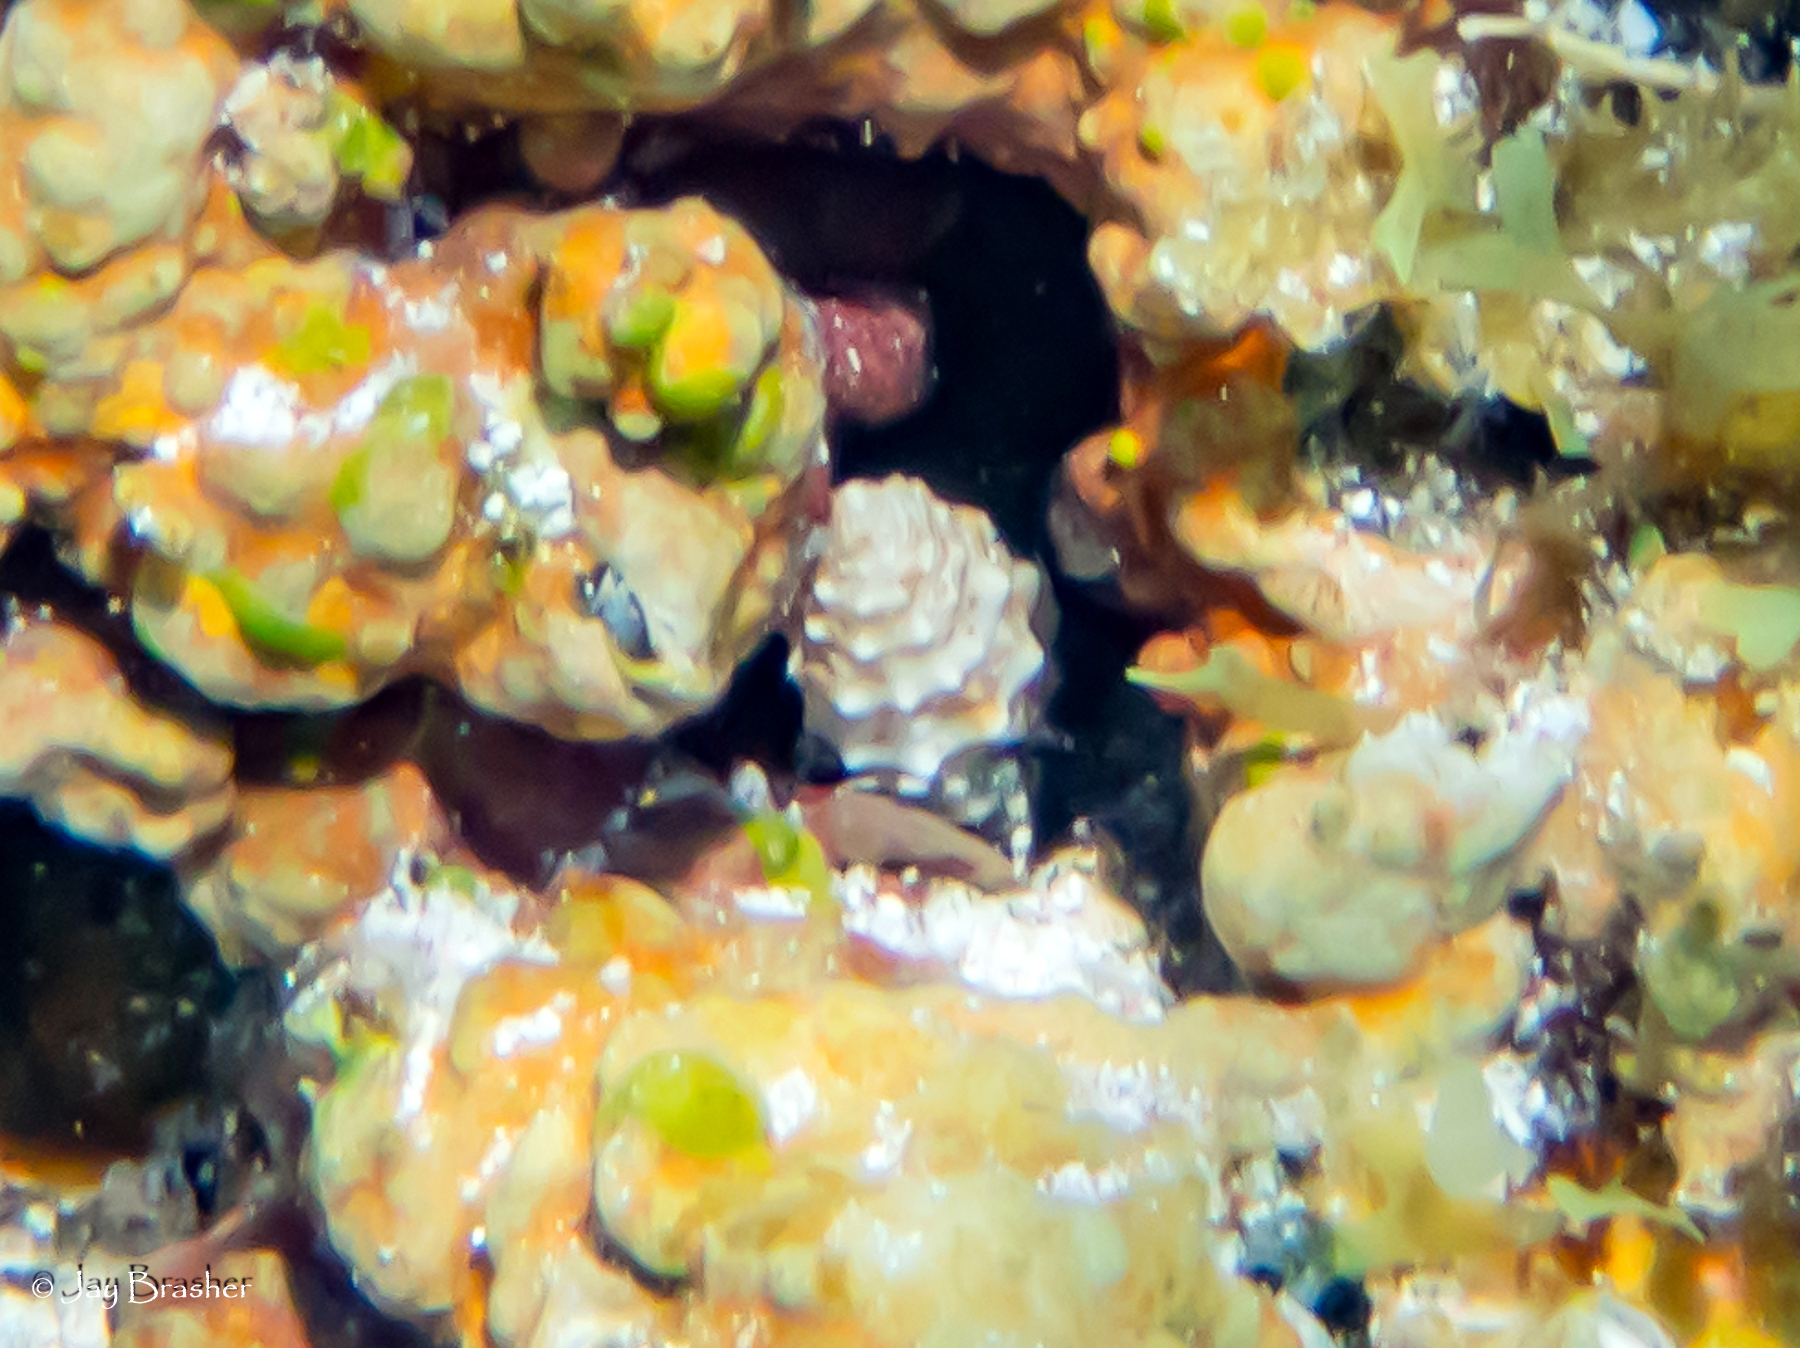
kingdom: Animalia
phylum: Mollusca
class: Gastropoda
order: Littorinimorpha
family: Littorinidae
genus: Cenchritis
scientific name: Cenchritis muricatus
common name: Beaded periwinkle
